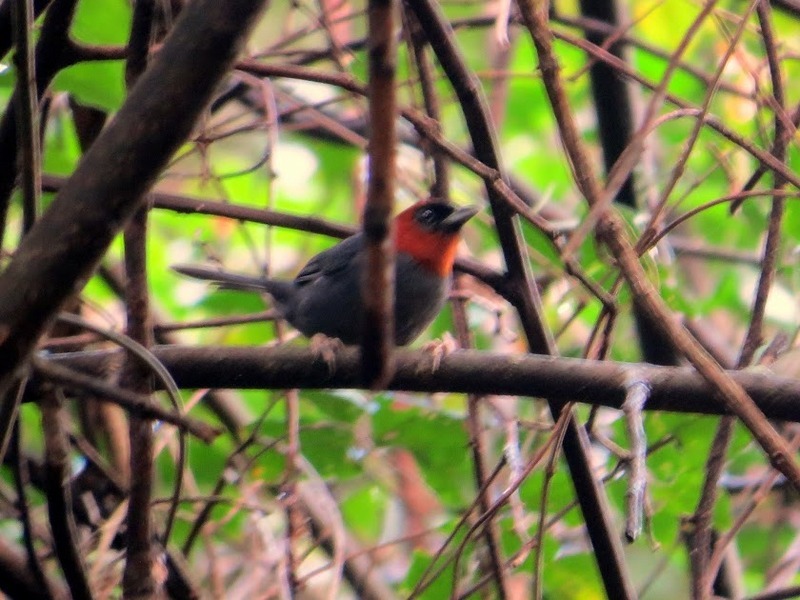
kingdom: Animalia
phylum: Chordata
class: Aves
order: Passeriformes
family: Thraupidae
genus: Thlypopsis
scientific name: Thlypopsis pyrrhocoma
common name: Chestnut-headed tanager
